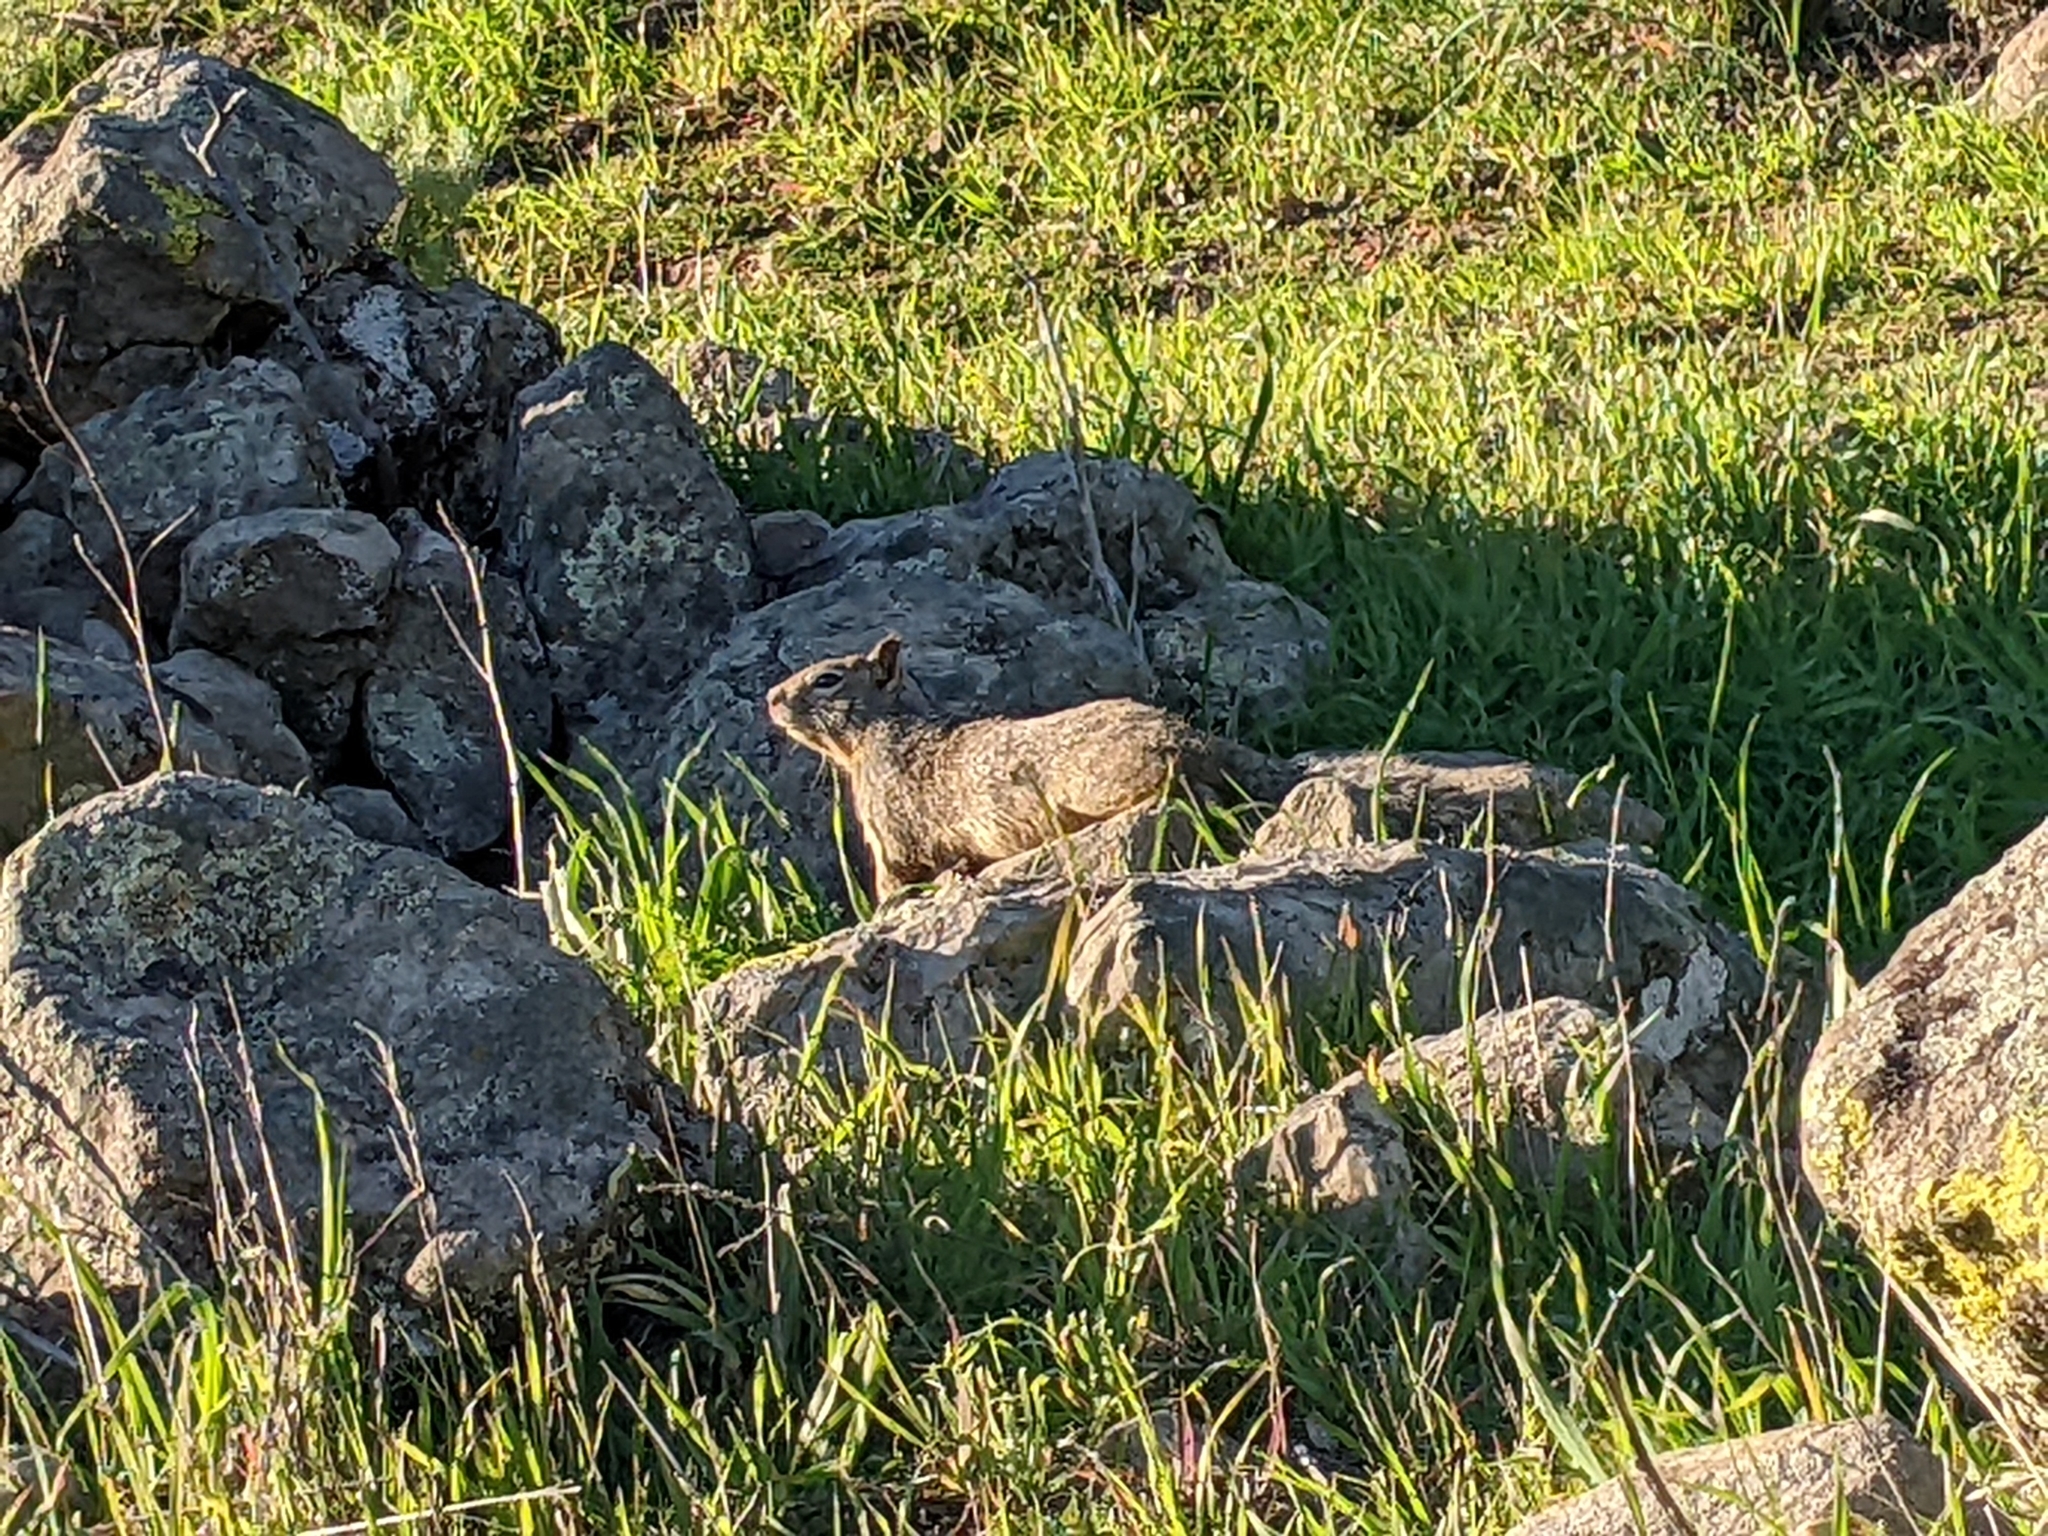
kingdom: Animalia
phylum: Chordata
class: Mammalia
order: Rodentia
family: Sciuridae
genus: Otospermophilus
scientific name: Otospermophilus beecheyi
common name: California ground squirrel
